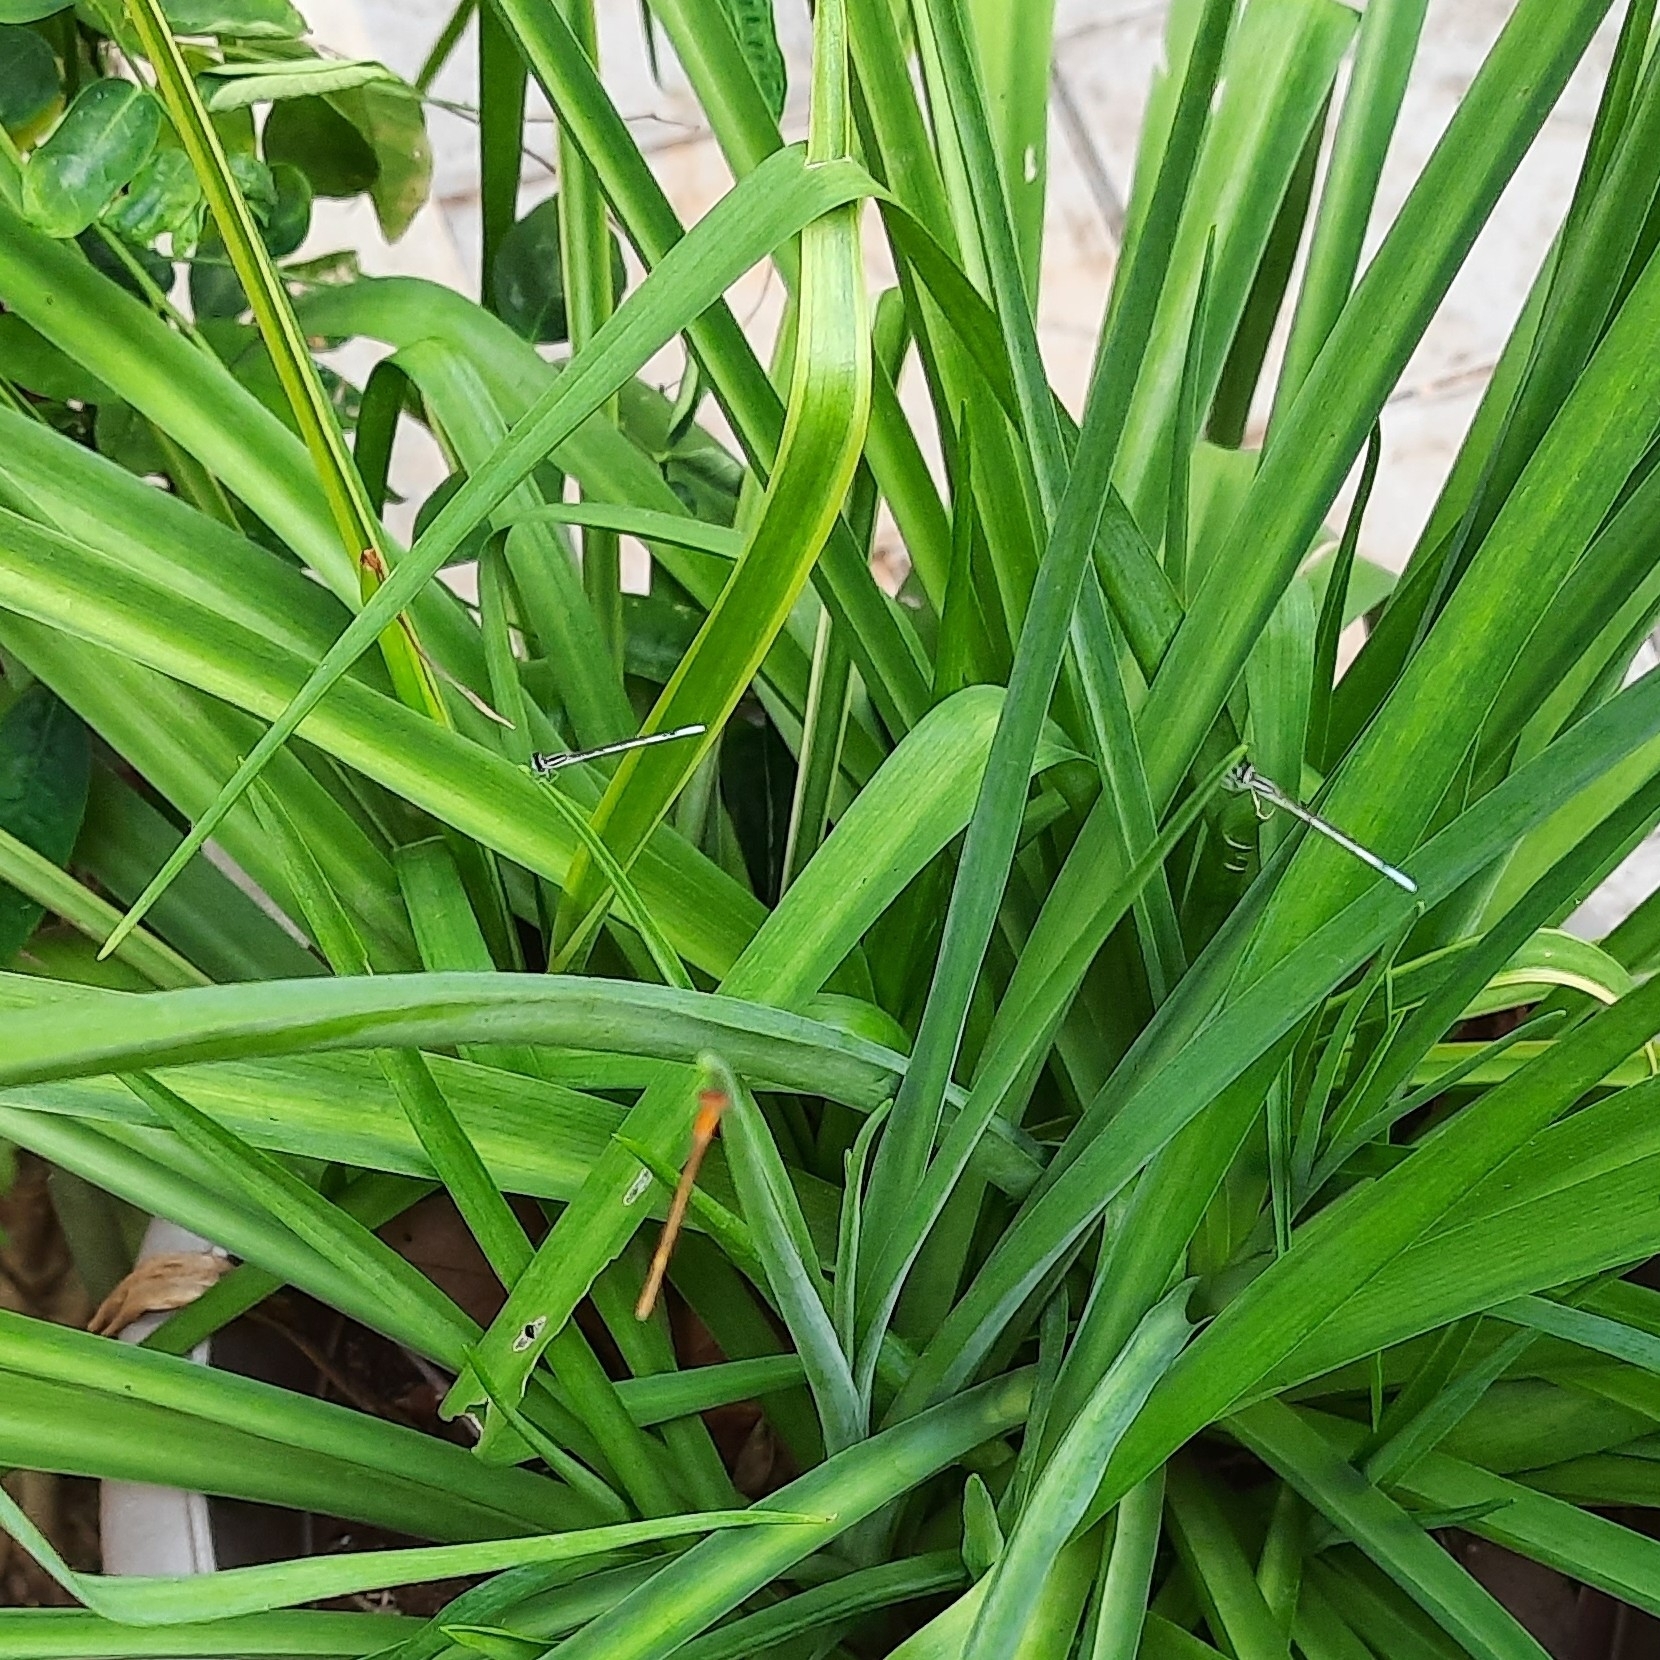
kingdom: Animalia
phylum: Arthropoda
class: Insecta
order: Odonata
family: Coenagrionidae
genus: Agriocnemis
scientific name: Agriocnemis pieris
